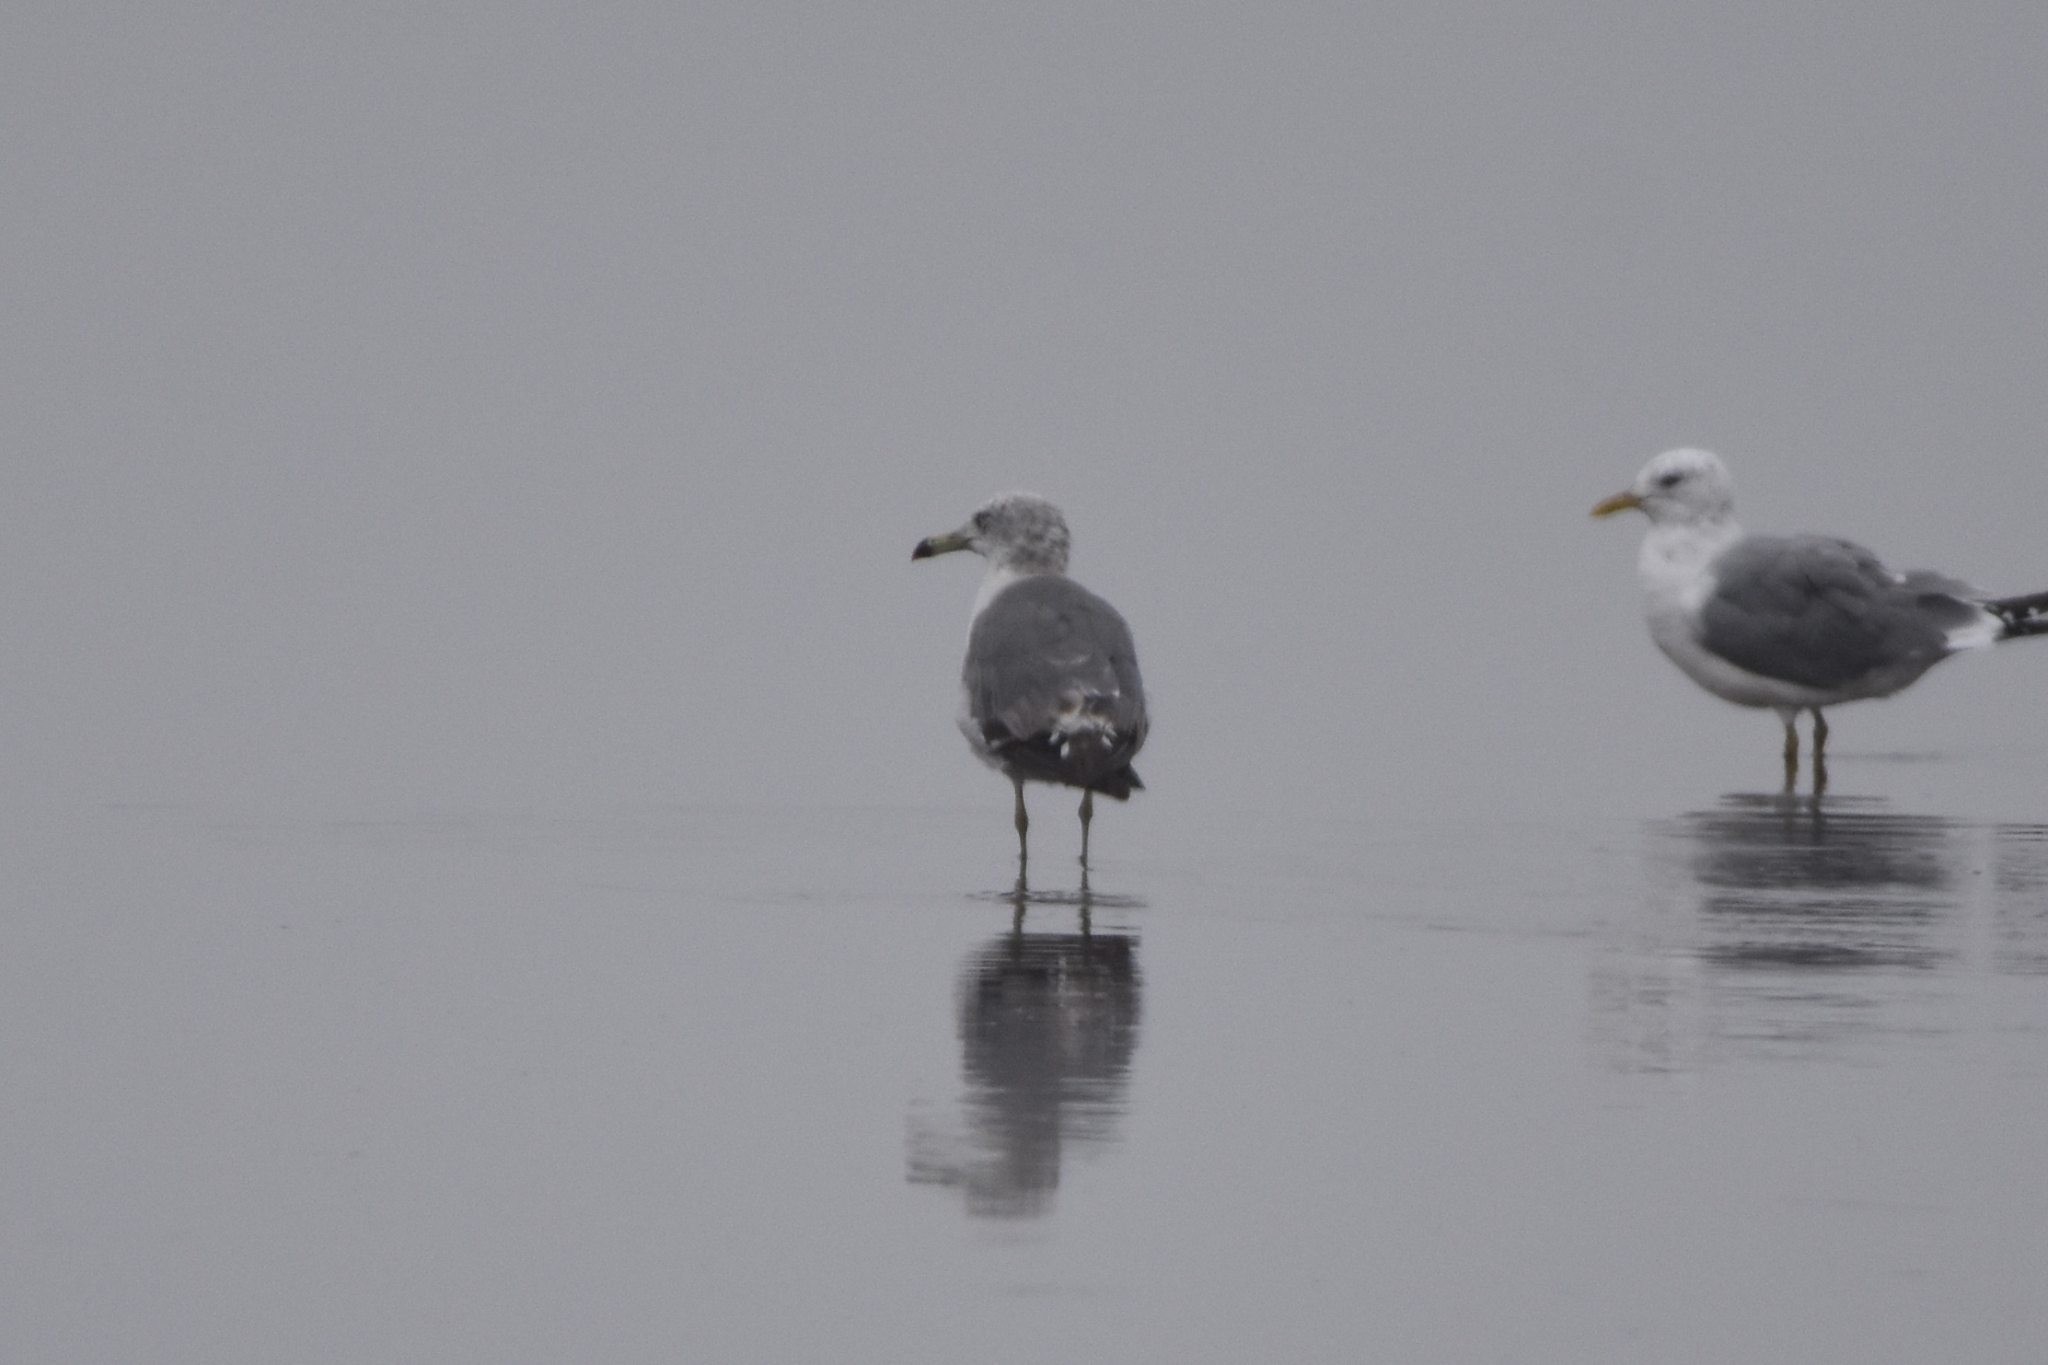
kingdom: Animalia
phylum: Chordata
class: Aves
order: Charadriiformes
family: Laridae
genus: Larus
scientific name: Larus crassirostris
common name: Black-tailed gull
